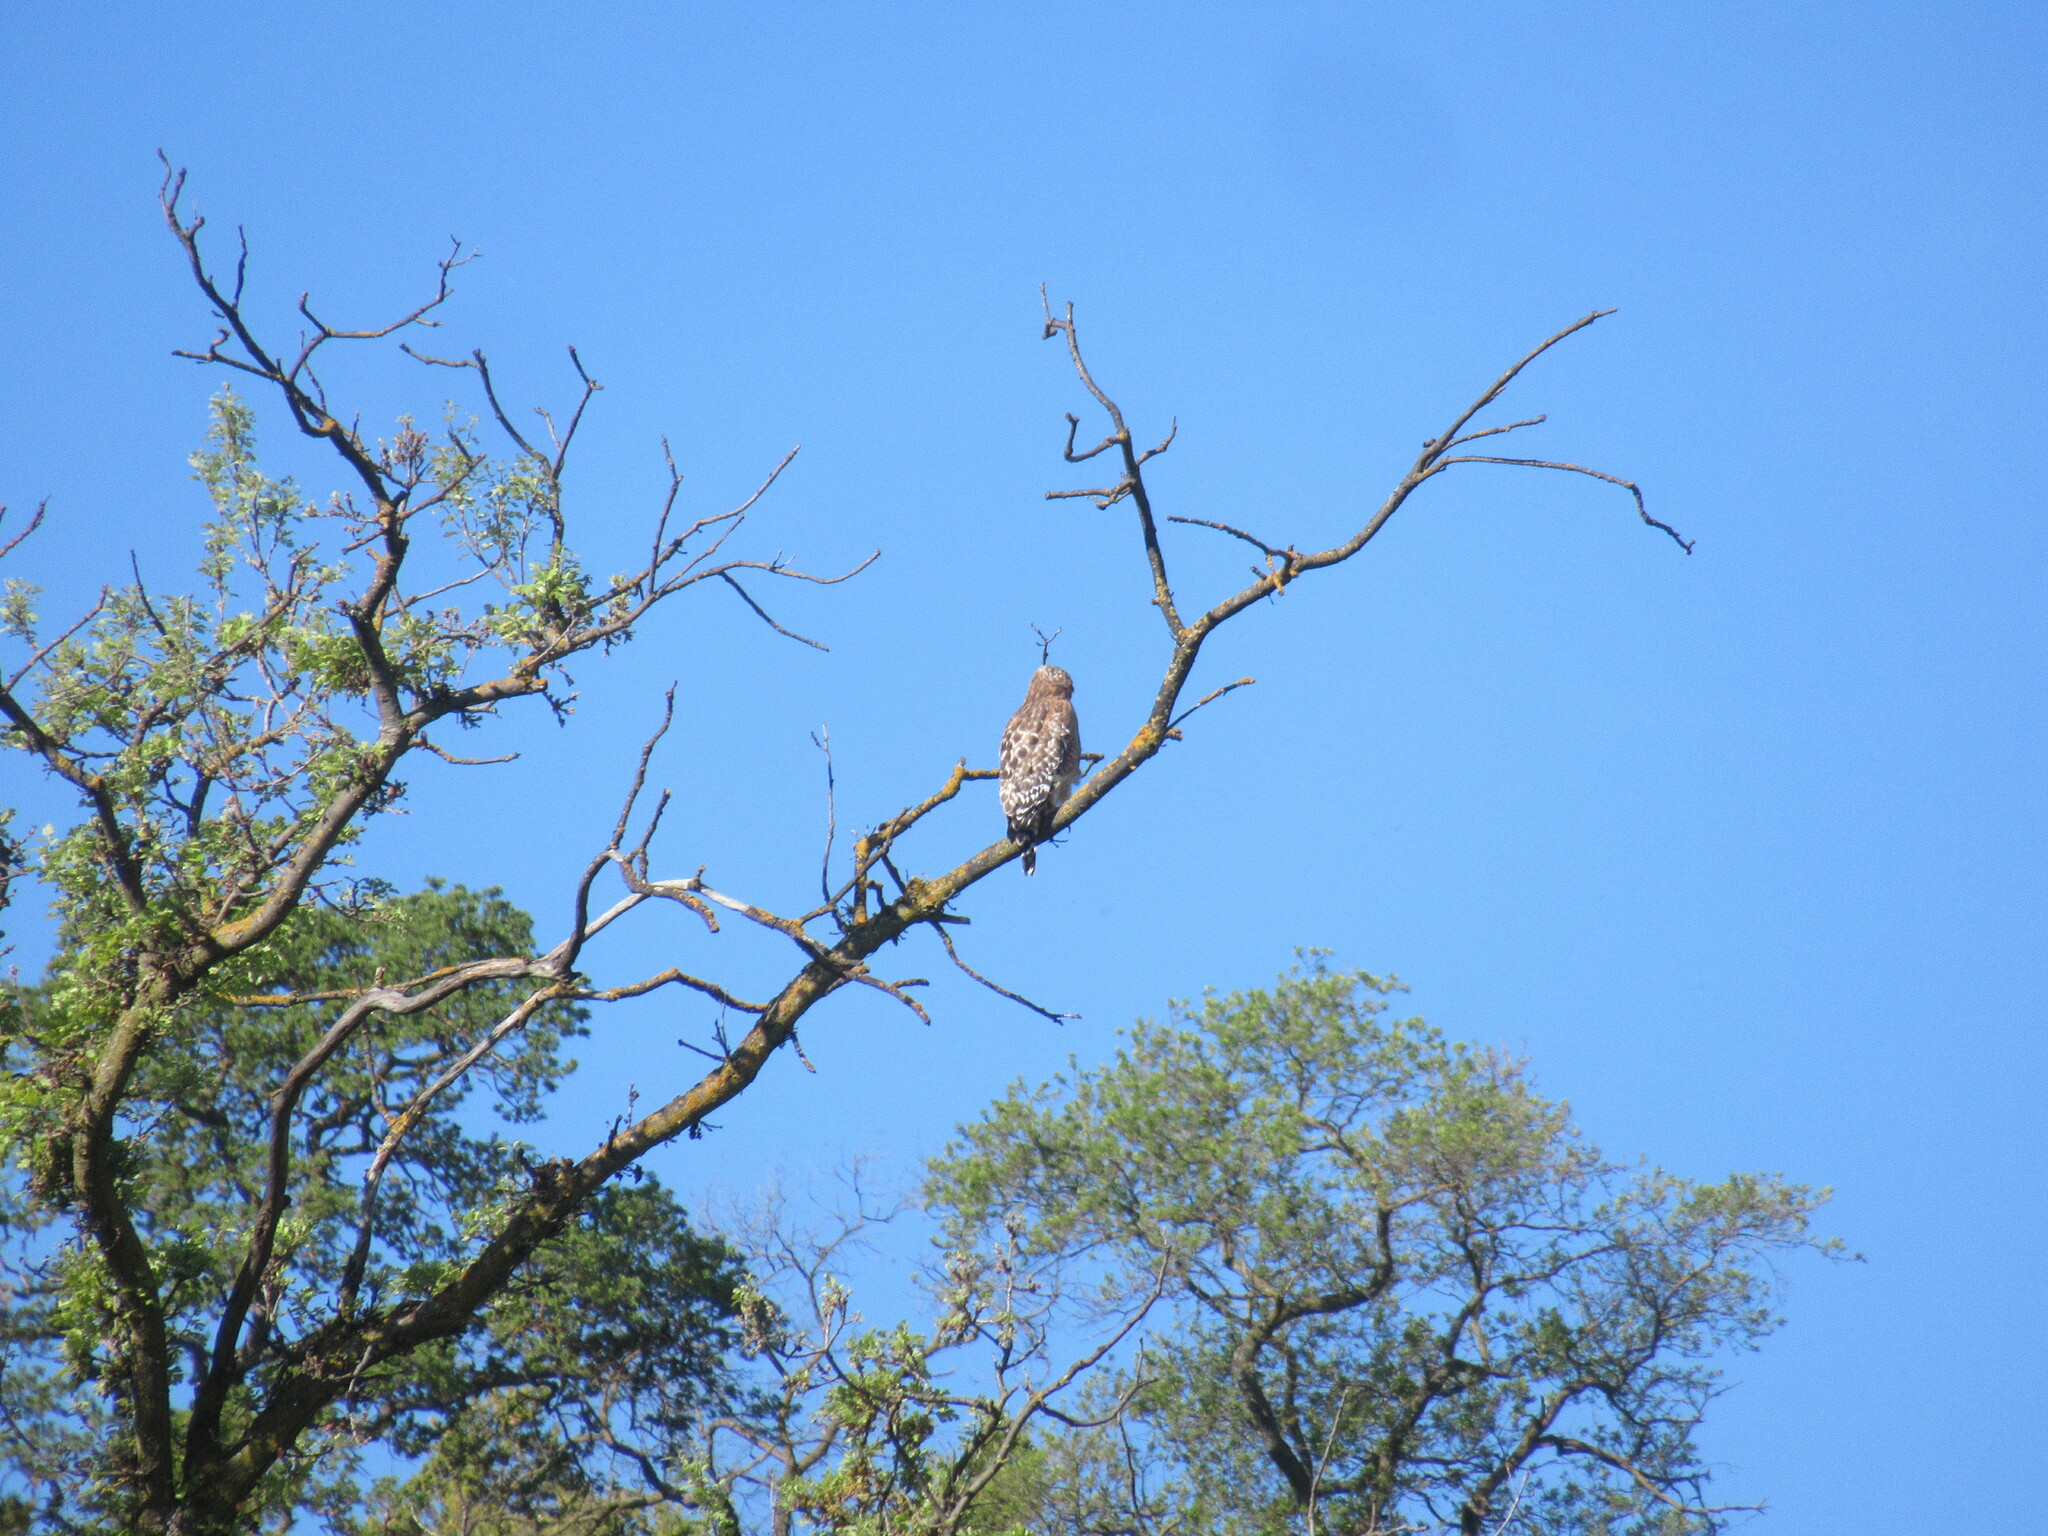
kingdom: Animalia
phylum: Chordata
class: Aves
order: Accipitriformes
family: Accipitridae
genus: Buteo
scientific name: Buteo lineatus
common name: Red-shouldered hawk
